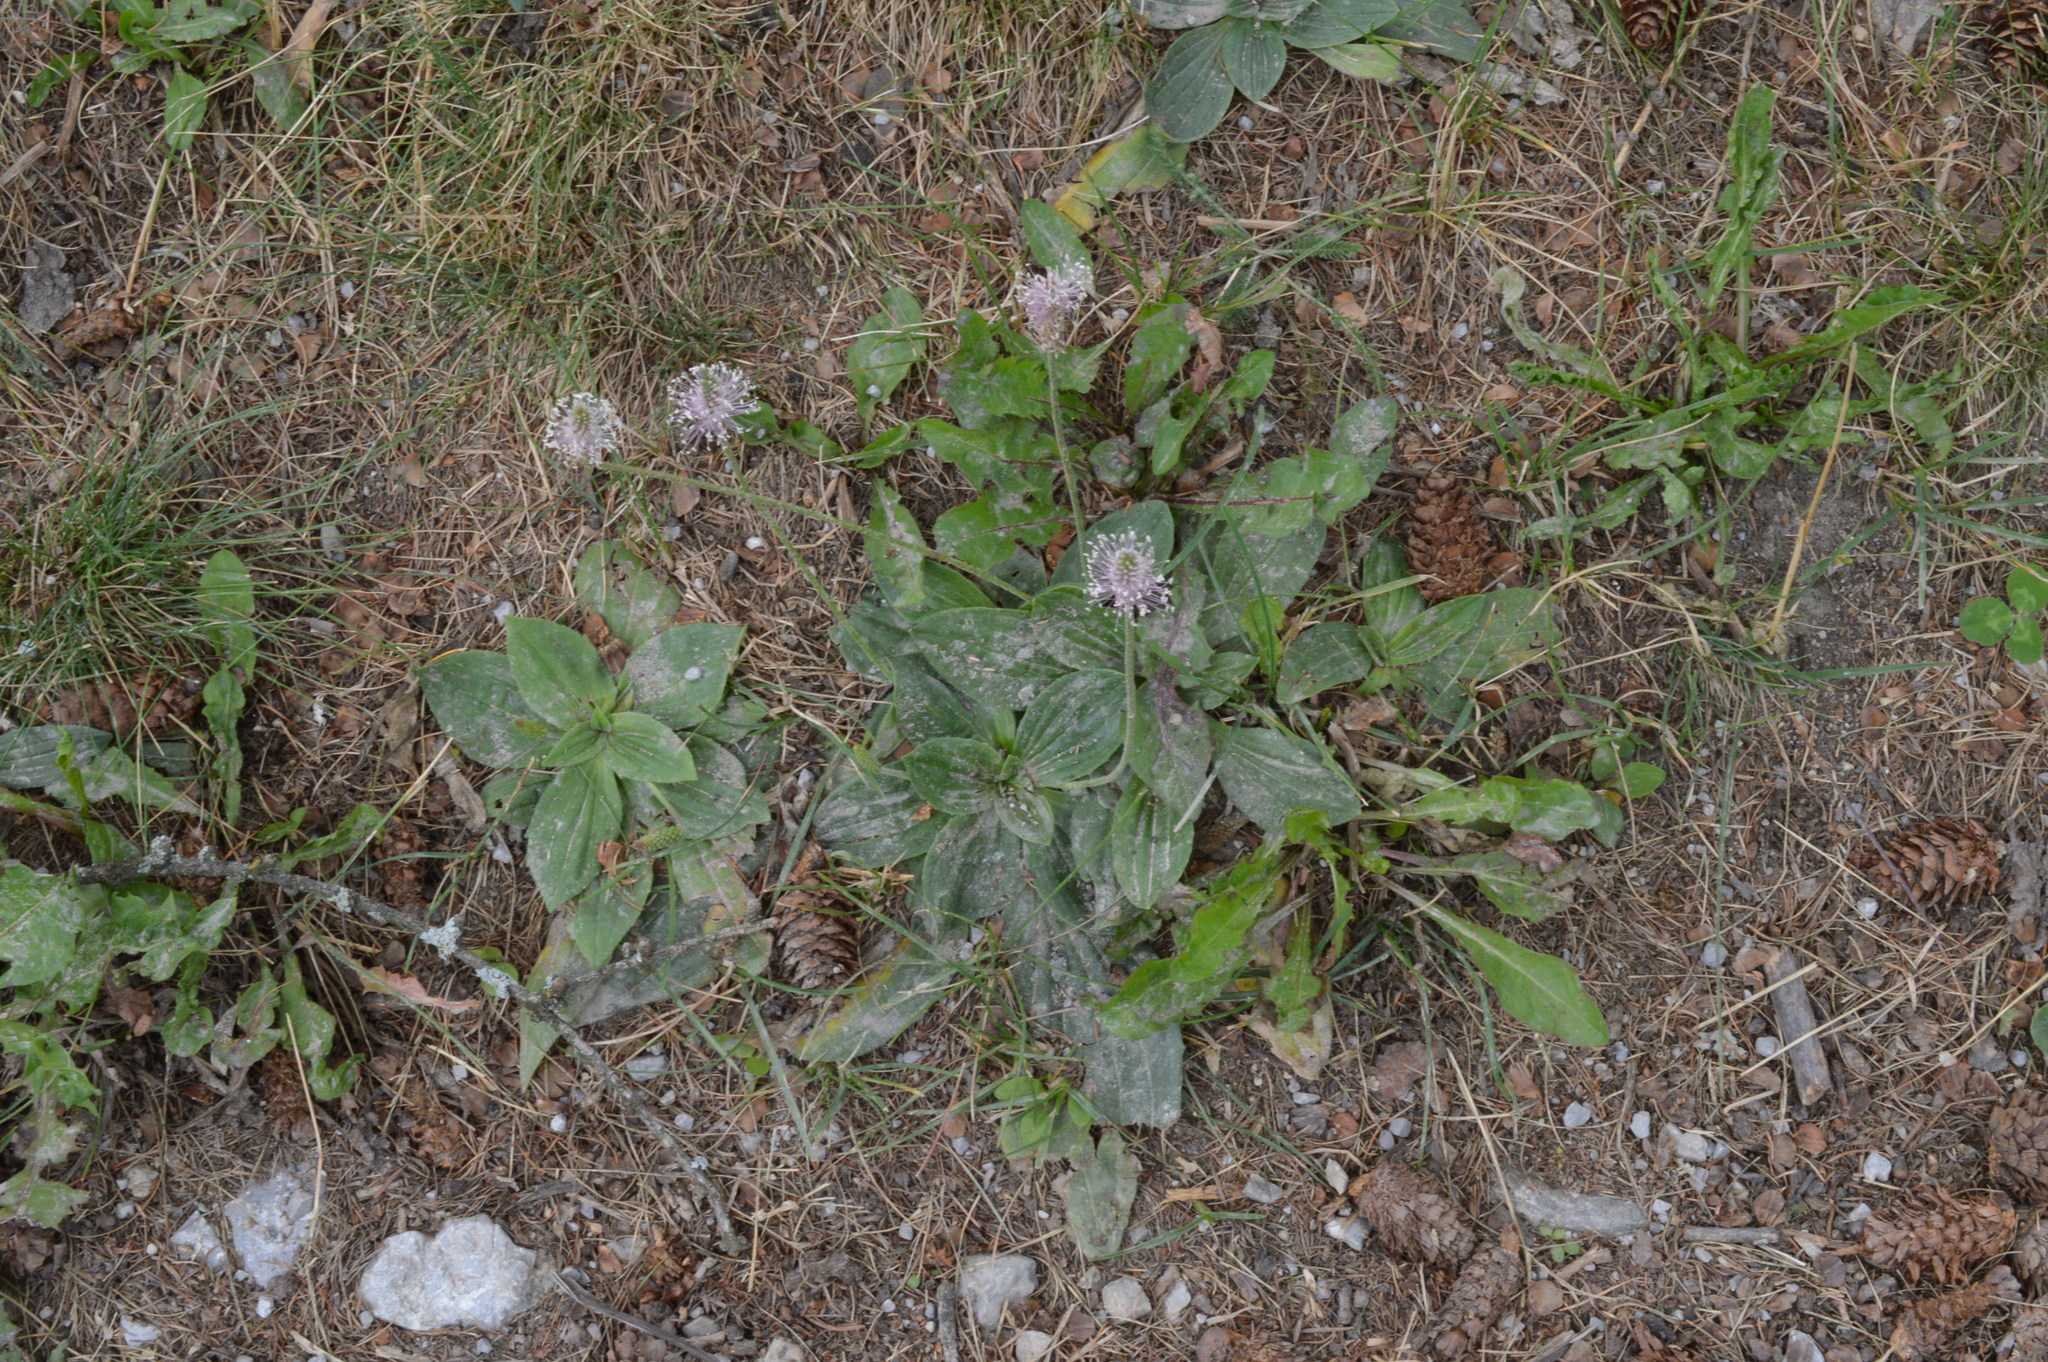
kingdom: Plantae
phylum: Tracheophyta
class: Magnoliopsida
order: Lamiales
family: Plantaginaceae
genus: Plantago
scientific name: Plantago media
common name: Hoary plantain
